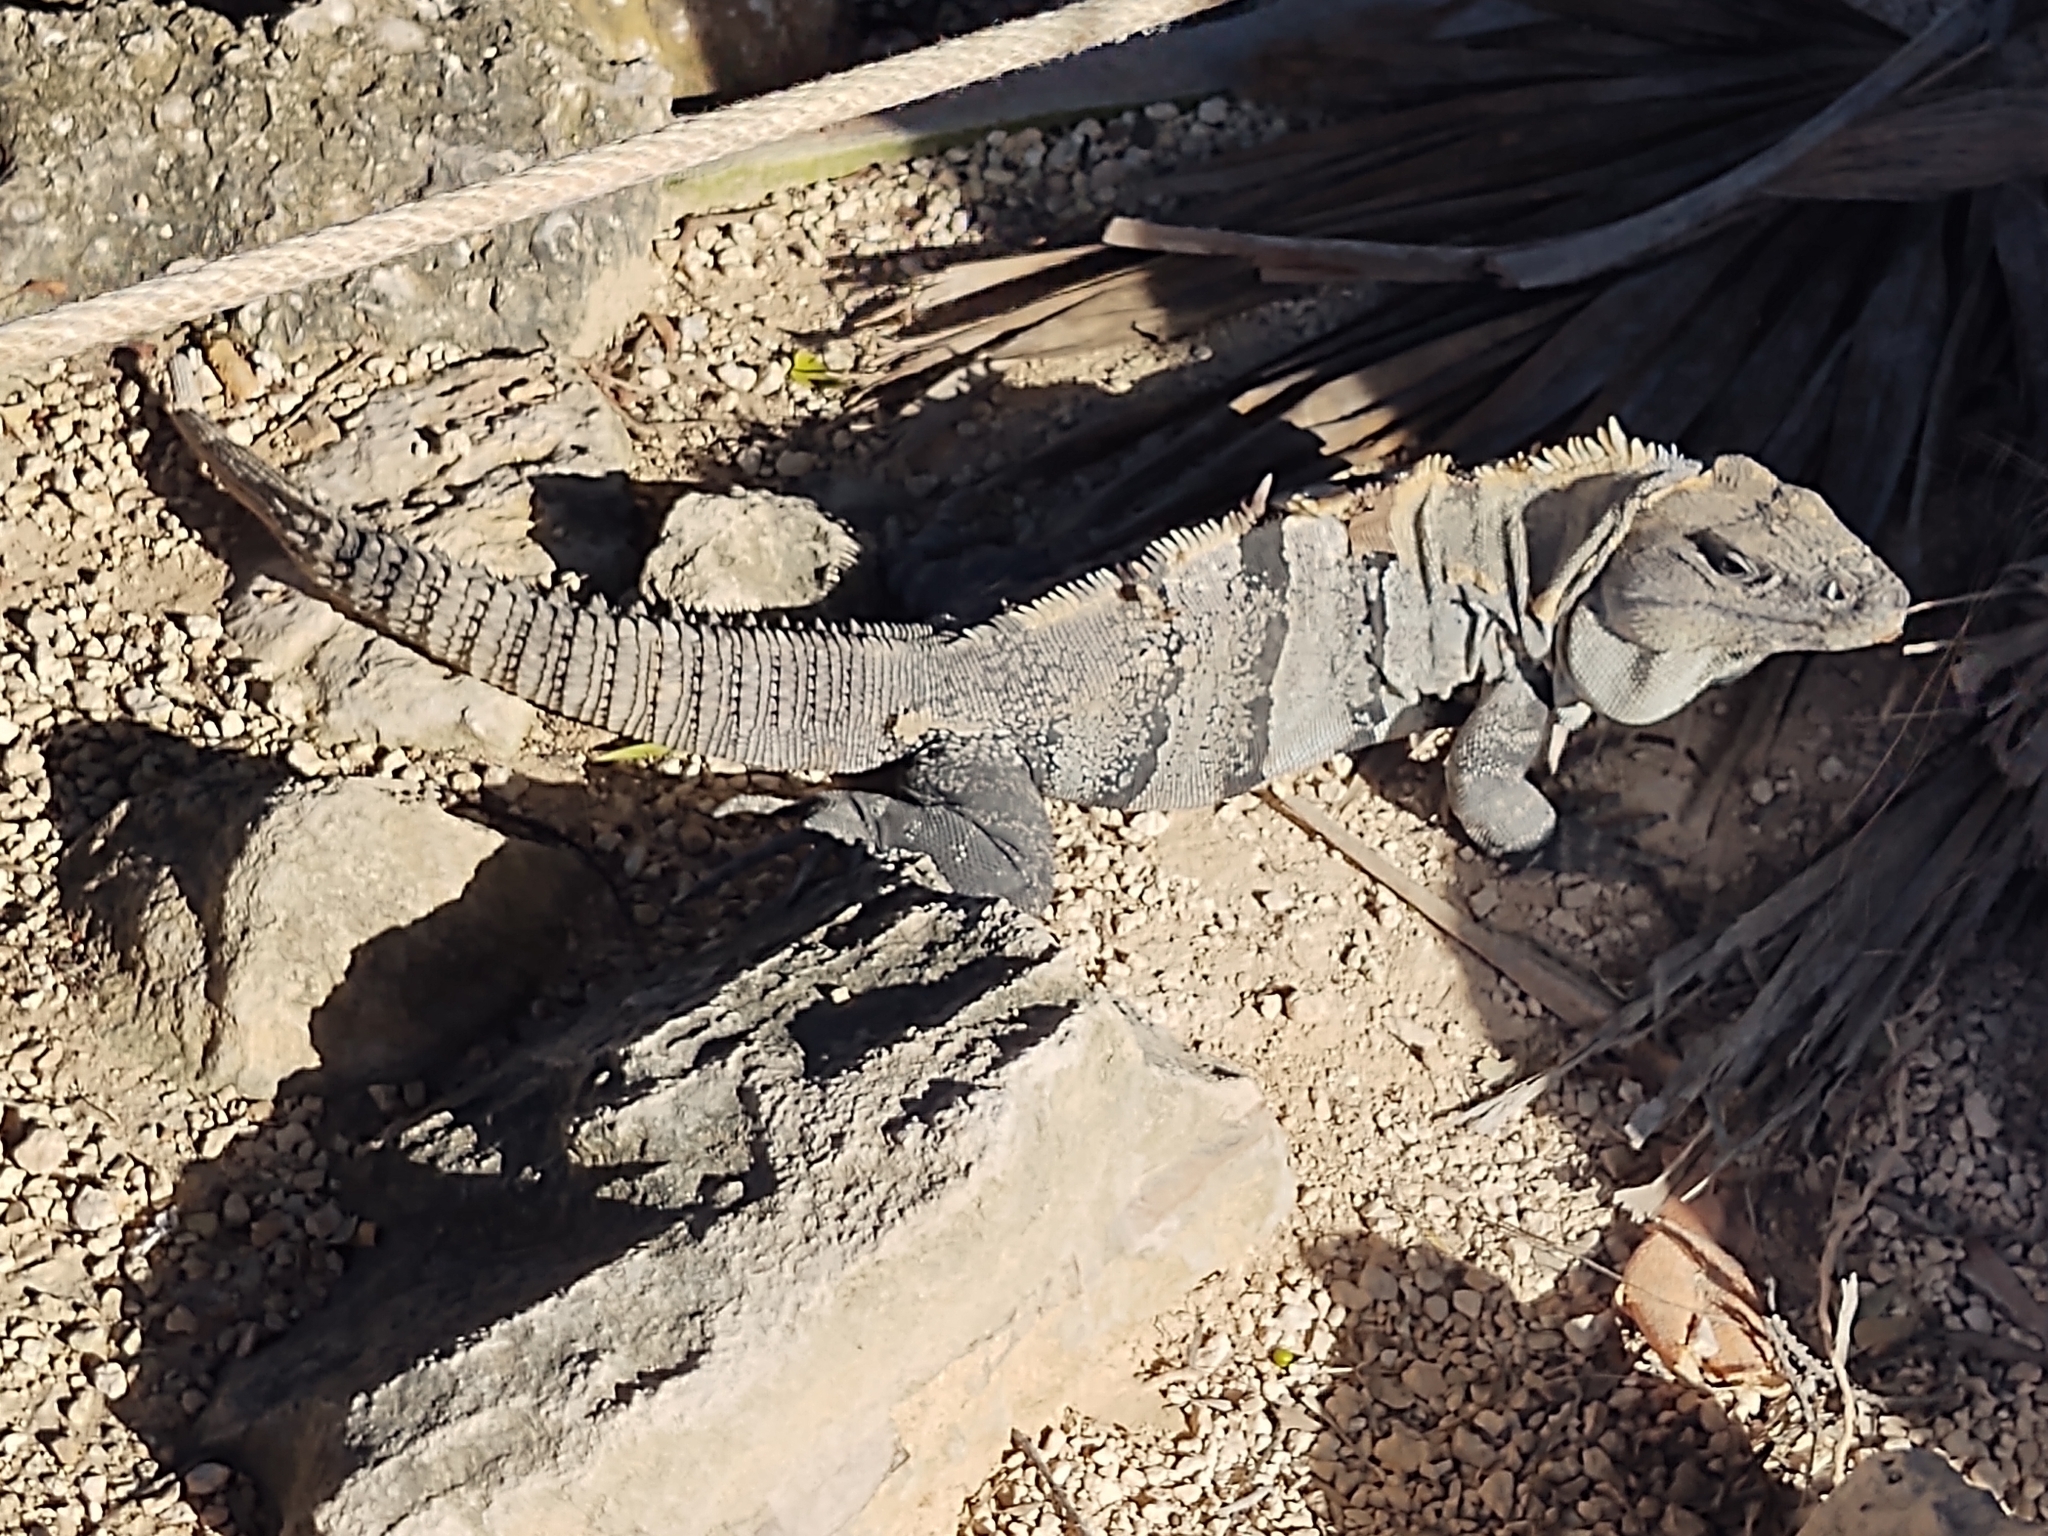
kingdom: Animalia
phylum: Chordata
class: Squamata
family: Iguanidae
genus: Ctenosaura
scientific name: Ctenosaura similis
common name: Black spiny-tailed iguana
